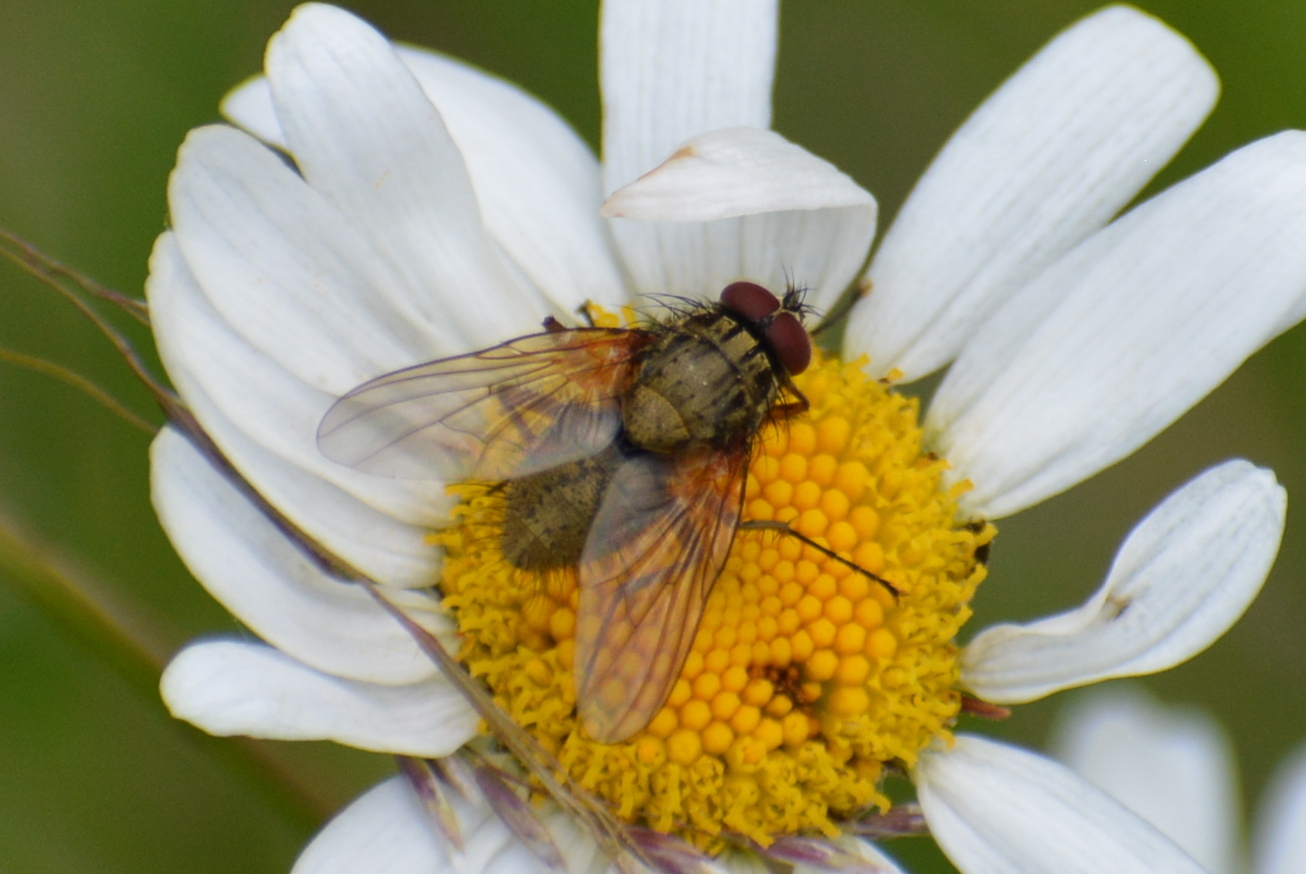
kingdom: Animalia
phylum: Arthropoda
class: Insecta
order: Diptera
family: Muscidae
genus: Phaonia
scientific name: Phaonia angelicae
